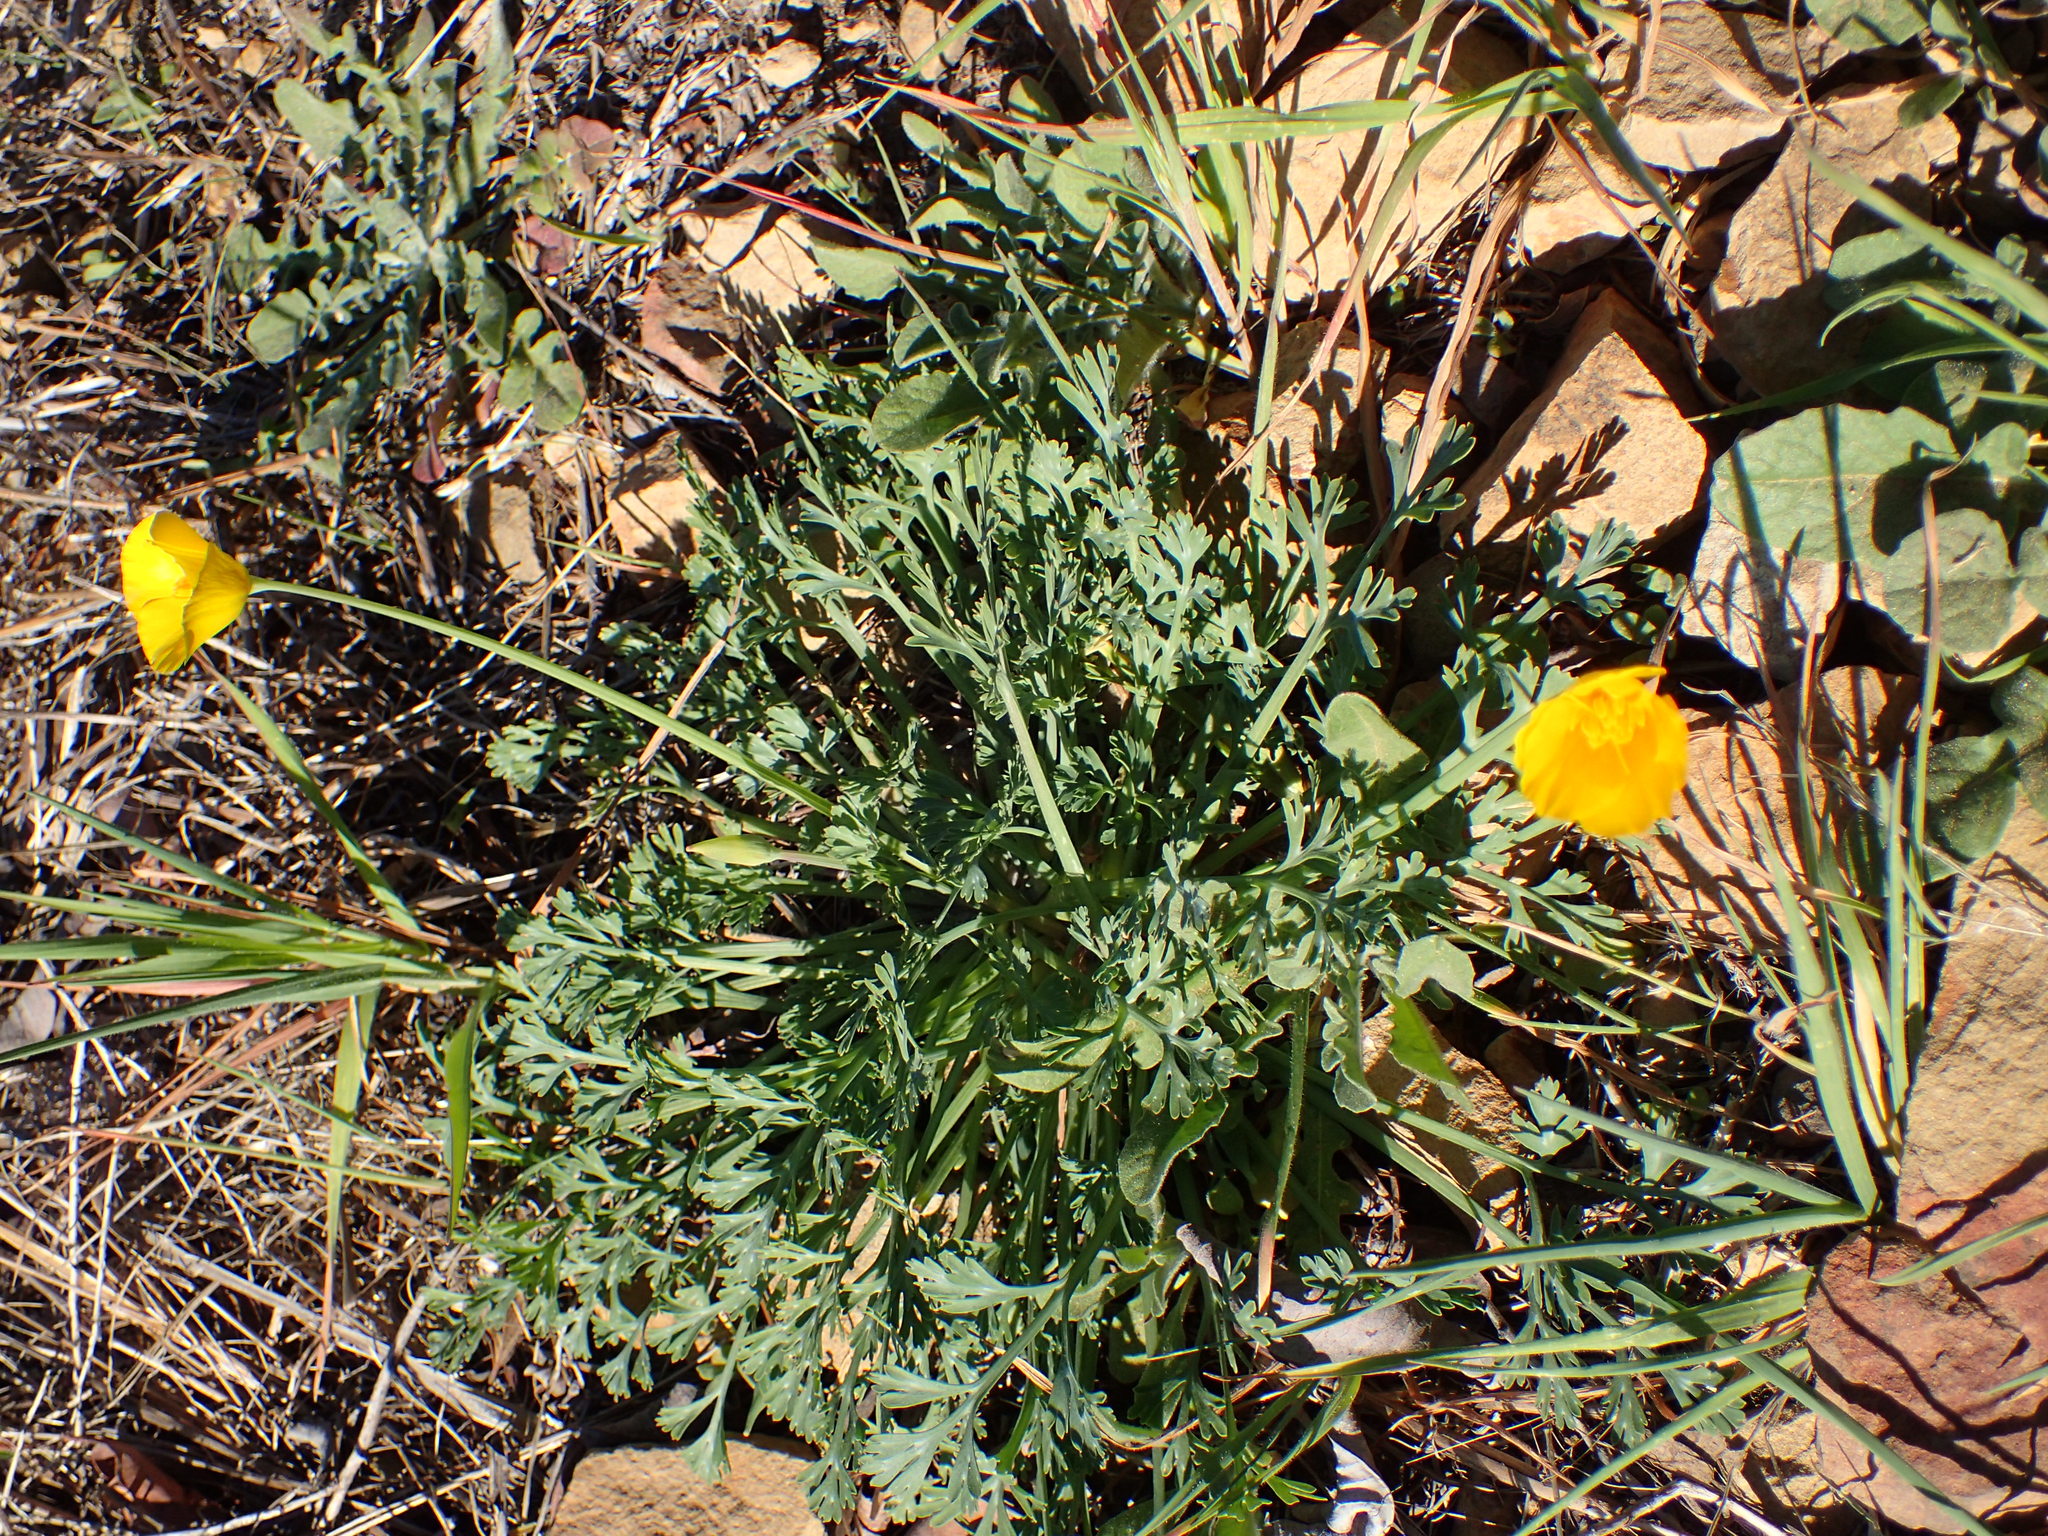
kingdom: Plantae
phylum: Tracheophyta
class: Magnoliopsida
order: Ranunculales
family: Papaveraceae
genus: Eschscholzia
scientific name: Eschscholzia caespitosa
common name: Tufted california-poppy
